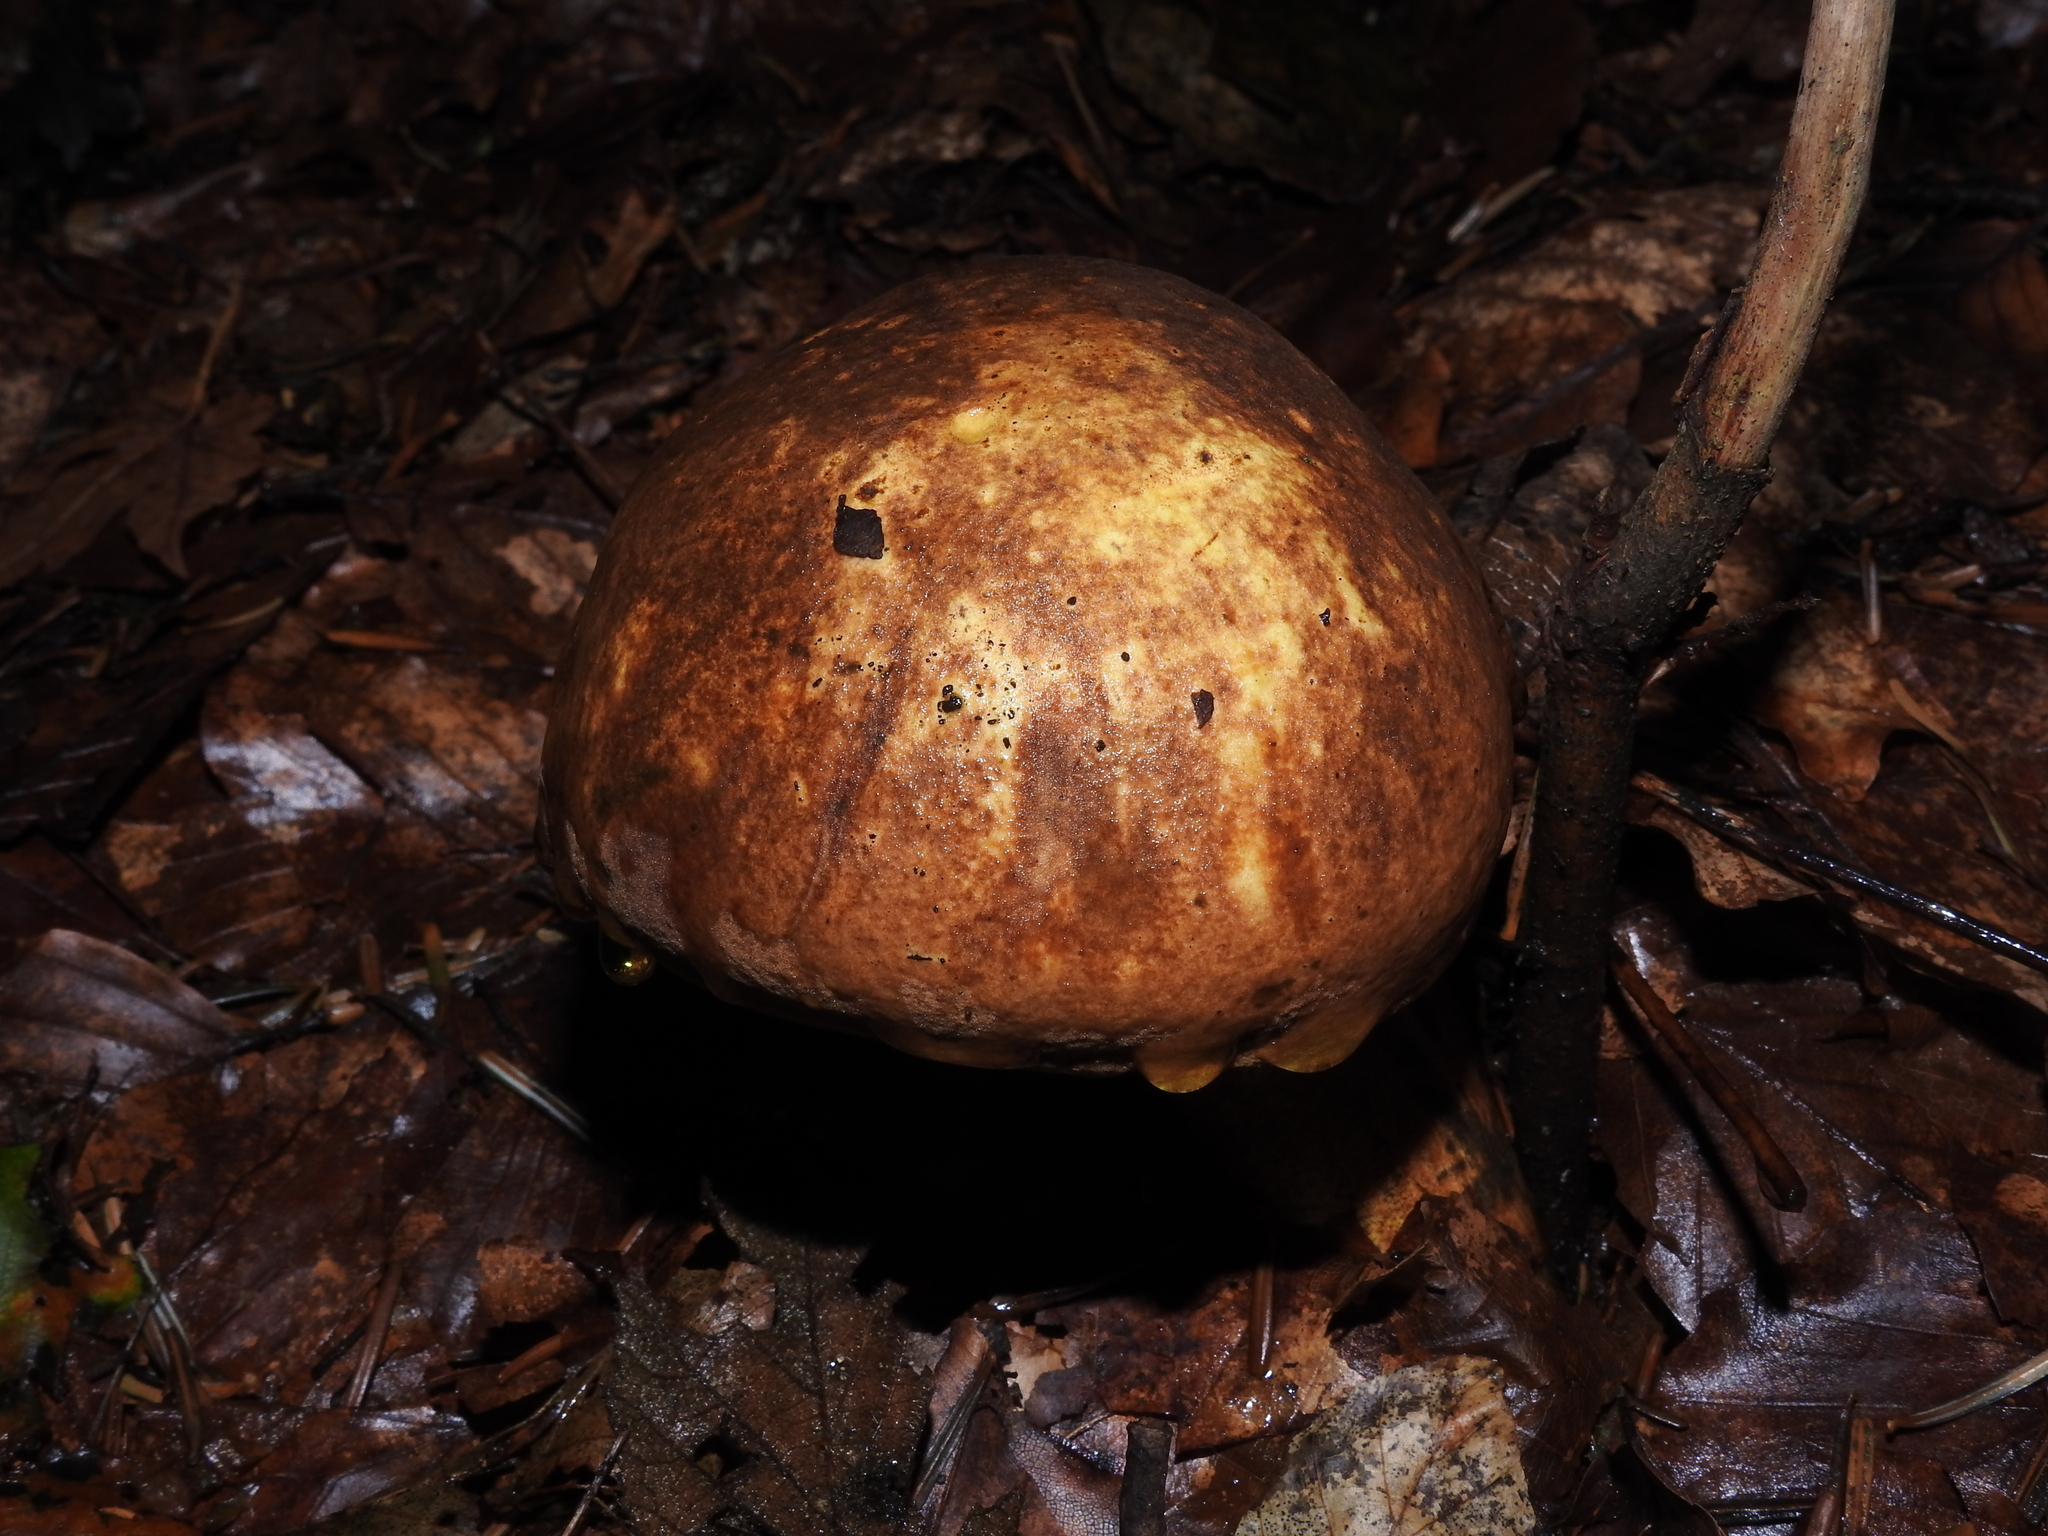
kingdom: Fungi
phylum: Basidiomycota
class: Agaricomycetes
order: Boletales
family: Boletaceae
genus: Neoboletus
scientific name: Neoboletus erythropus
